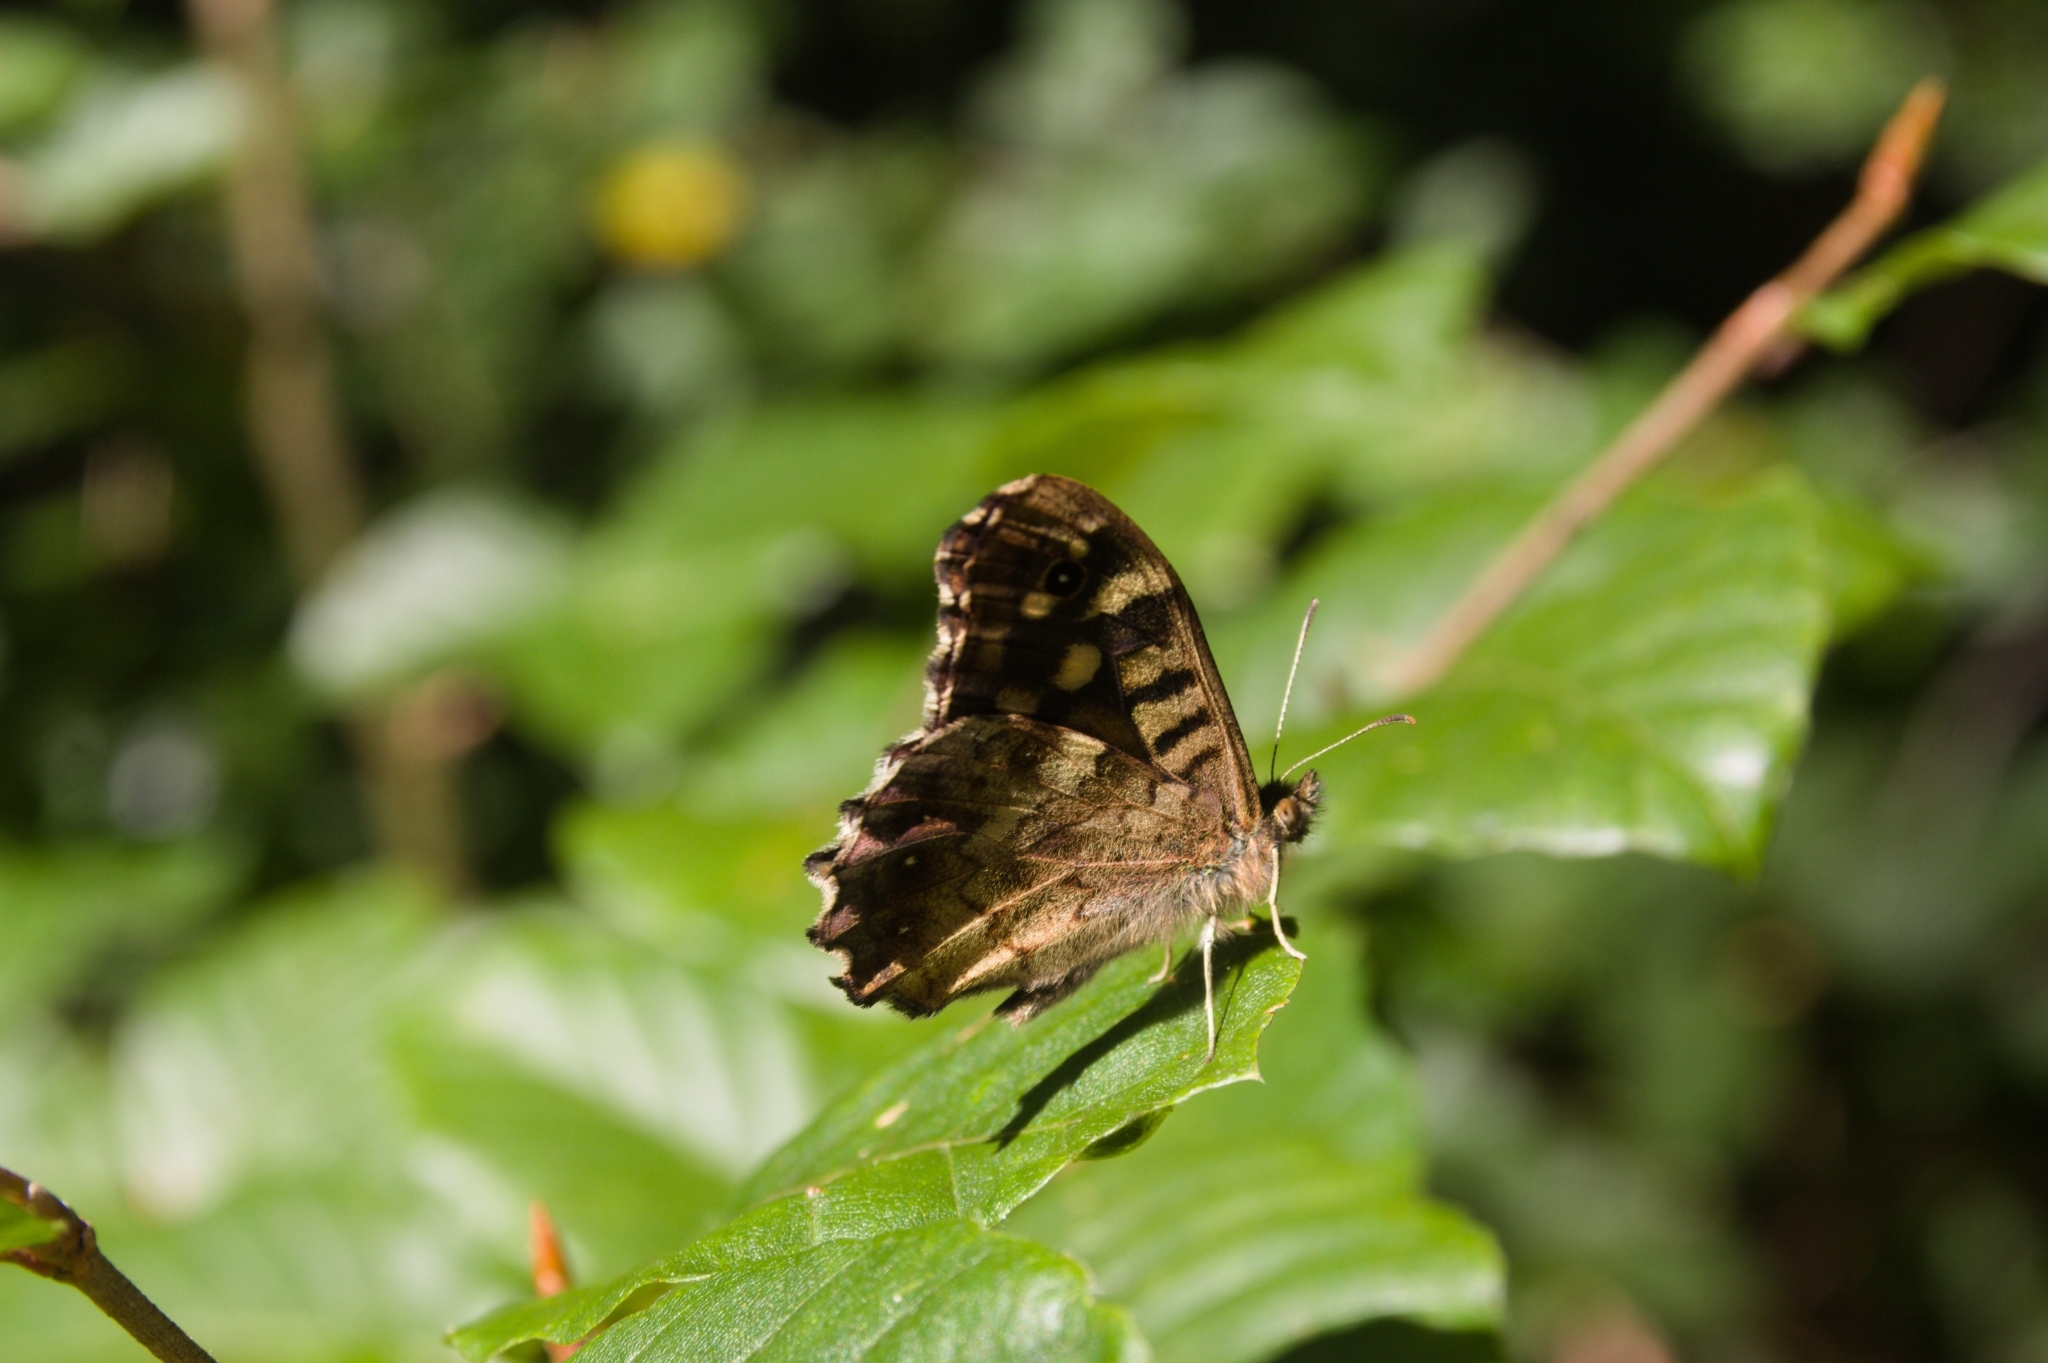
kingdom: Animalia
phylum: Arthropoda
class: Insecta
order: Lepidoptera
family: Nymphalidae
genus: Pararge
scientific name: Pararge aegeria
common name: Speckled wood
